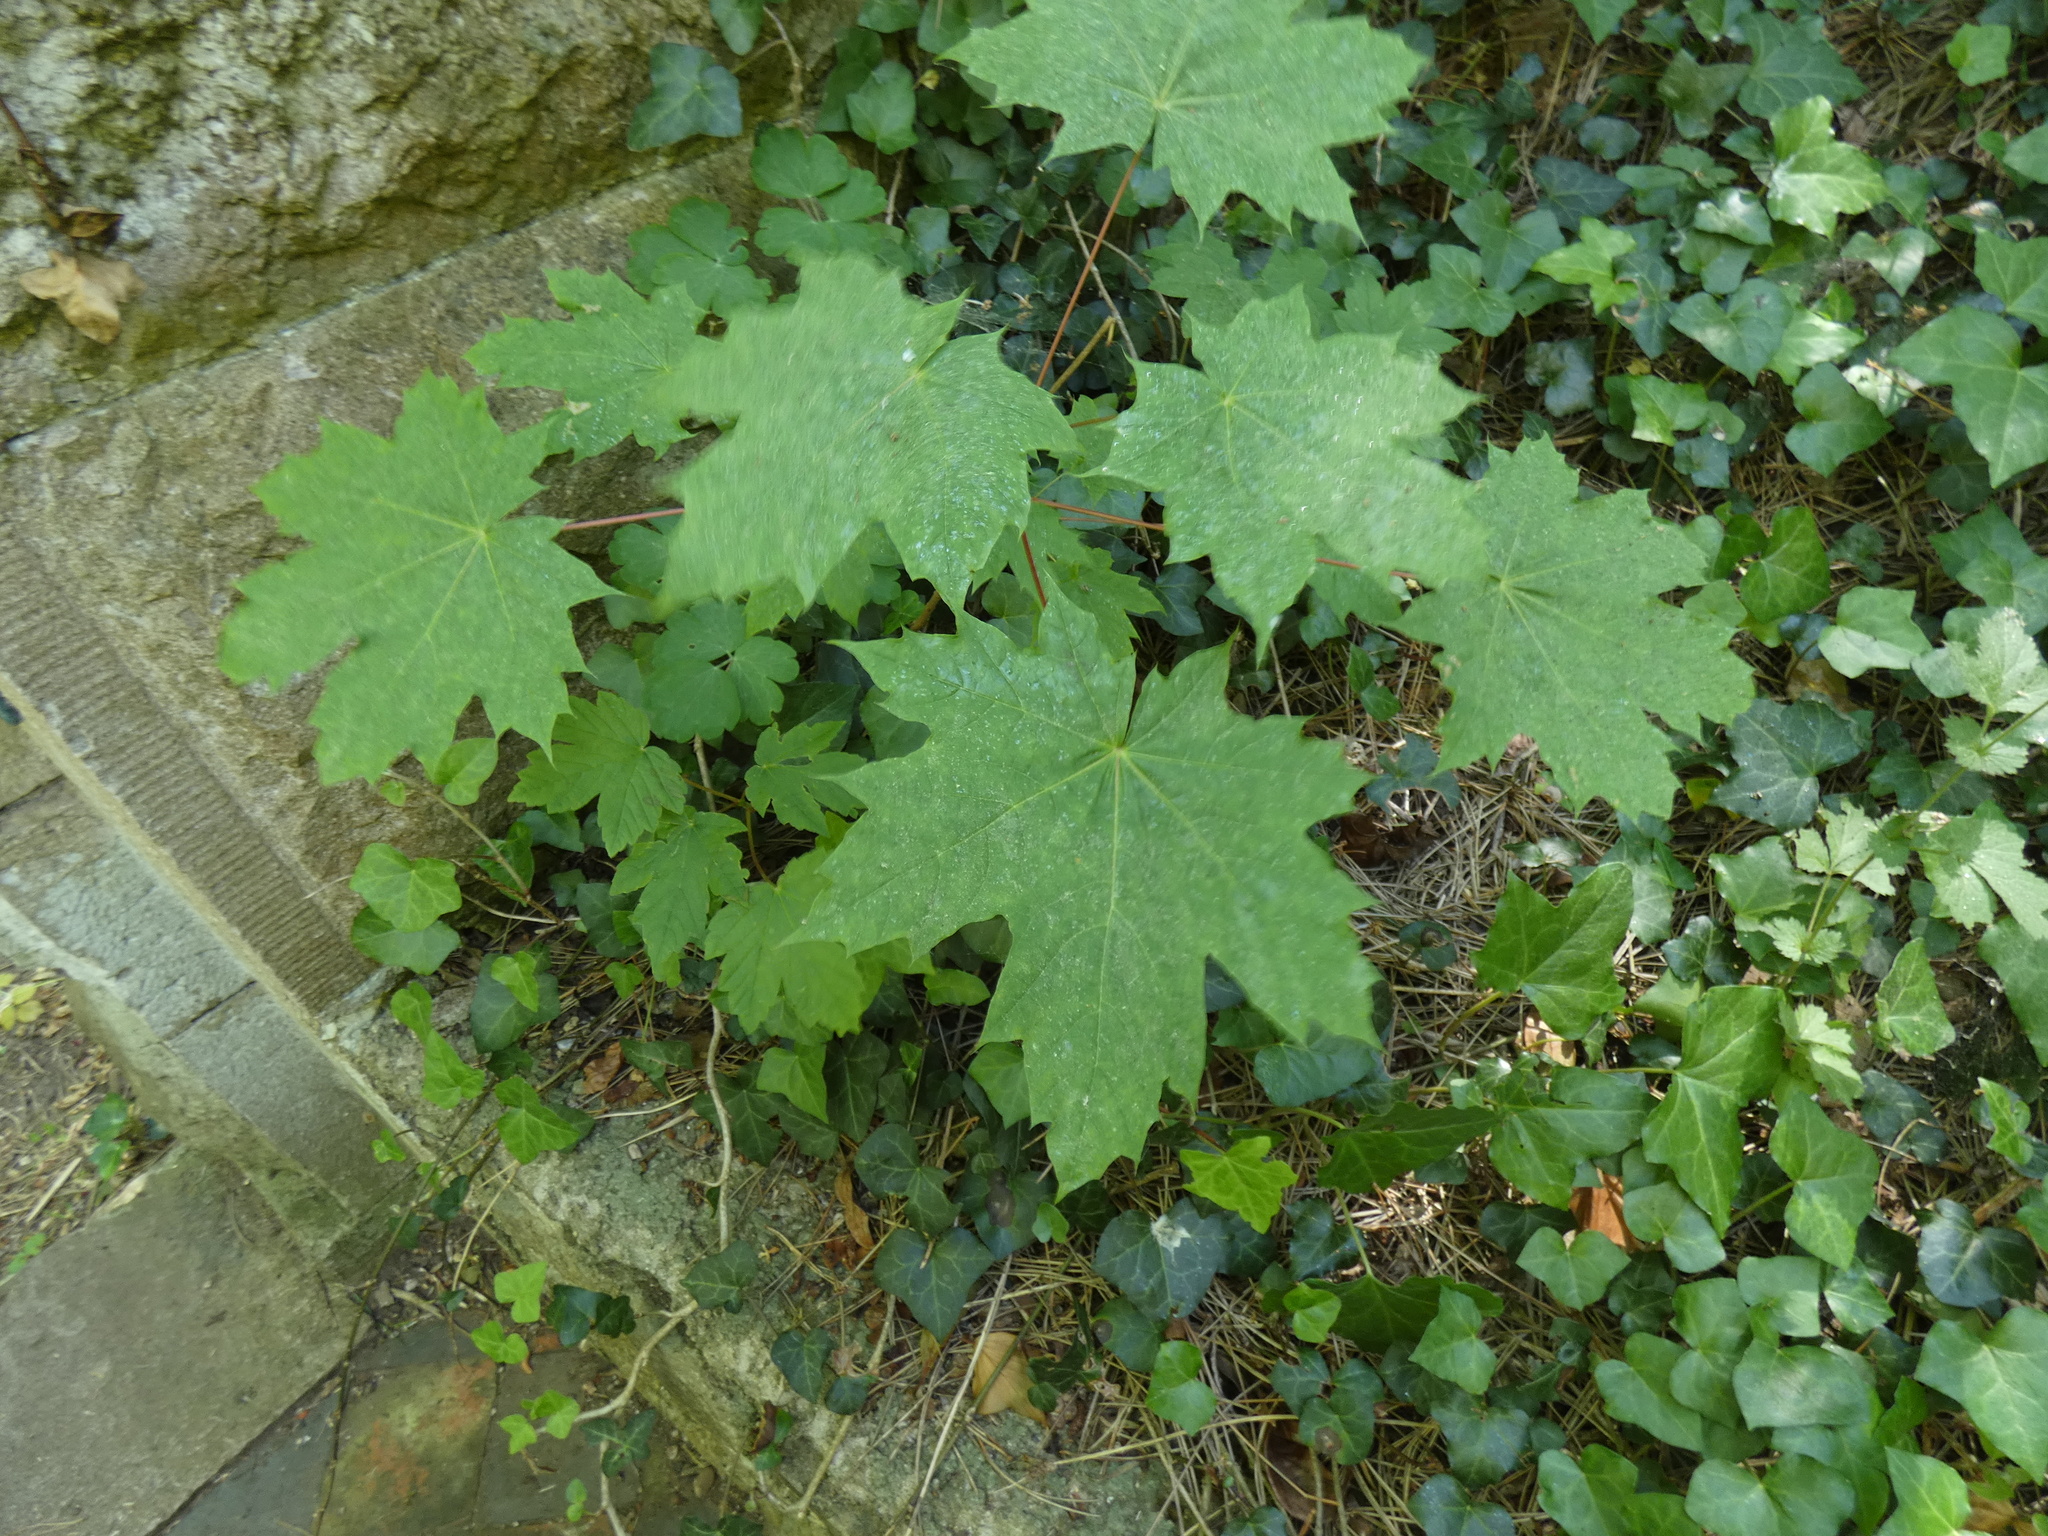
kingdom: Plantae
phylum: Tracheophyta
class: Magnoliopsida
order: Sapindales
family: Sapindaceae
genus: Acer
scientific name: Acer platanoides
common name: Norway maple
